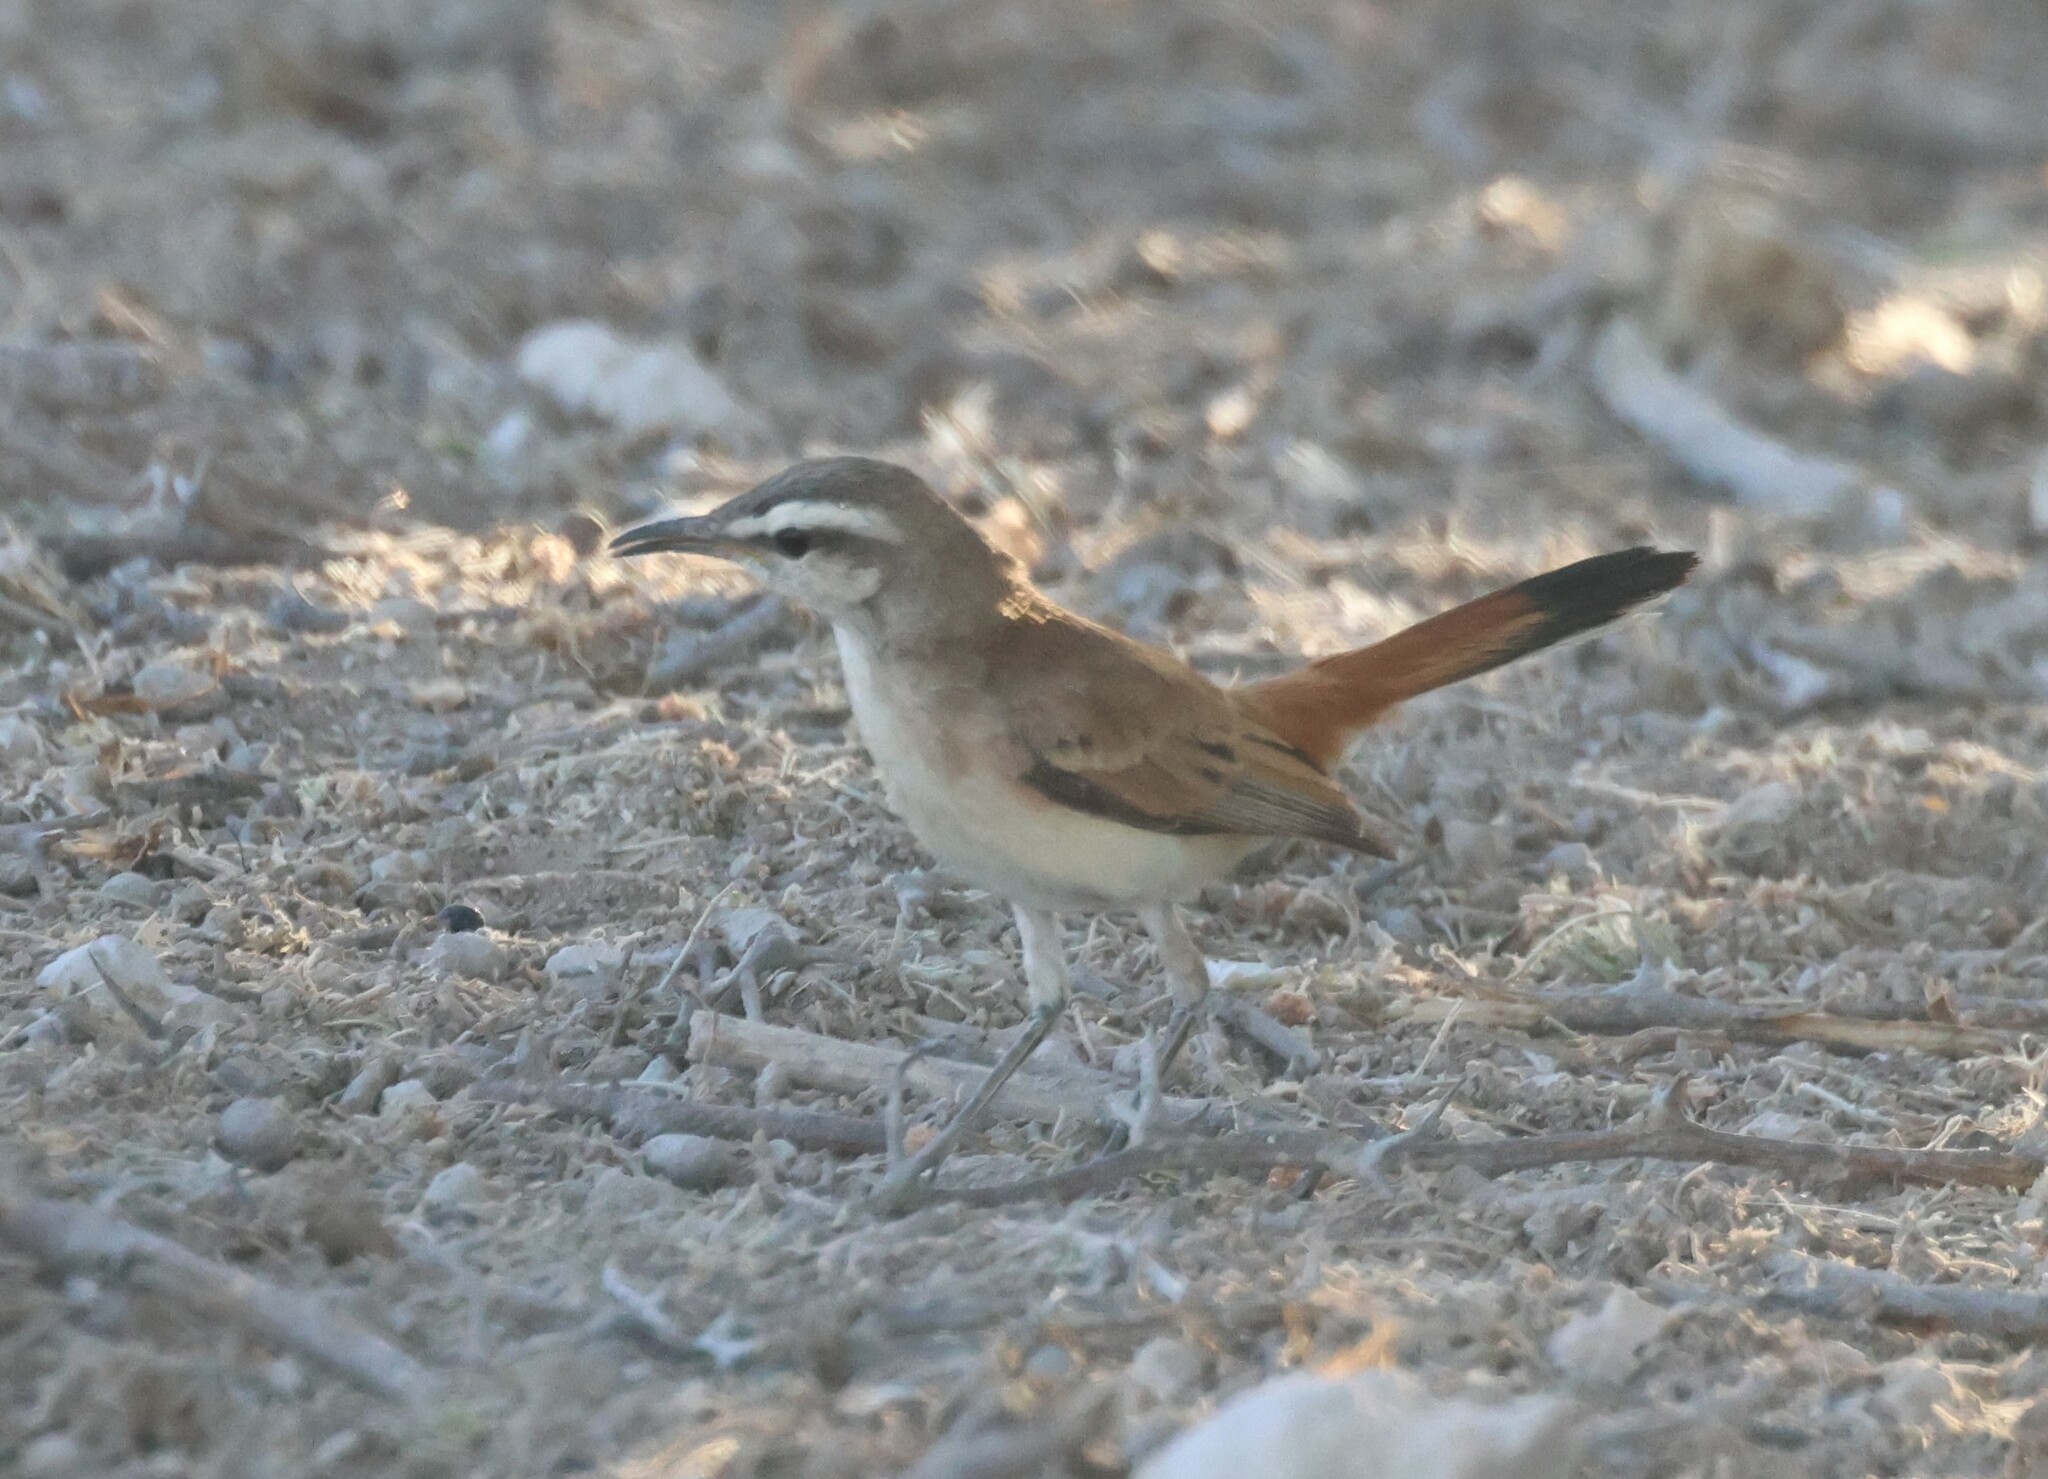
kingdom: Animalia
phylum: Chordata
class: Aves
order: Passeriformes
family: Muscicapidae
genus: Erythropygia
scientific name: Erythropygia paena
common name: Kalahari scrub robin
